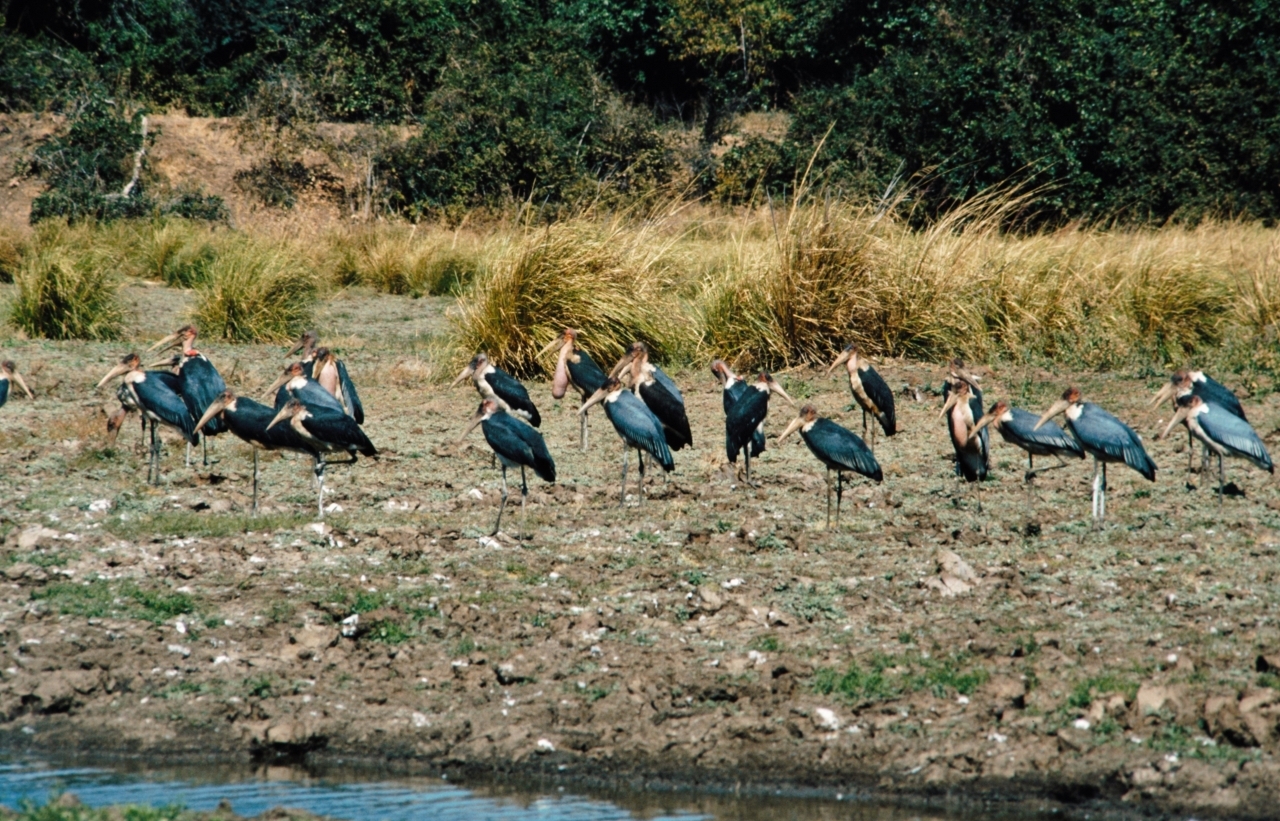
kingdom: Animalia
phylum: Chordata
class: Aves
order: Ciconiiformes
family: Ciconiidae
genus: Leptoptilos
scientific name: Leptoptilos crumenifer
